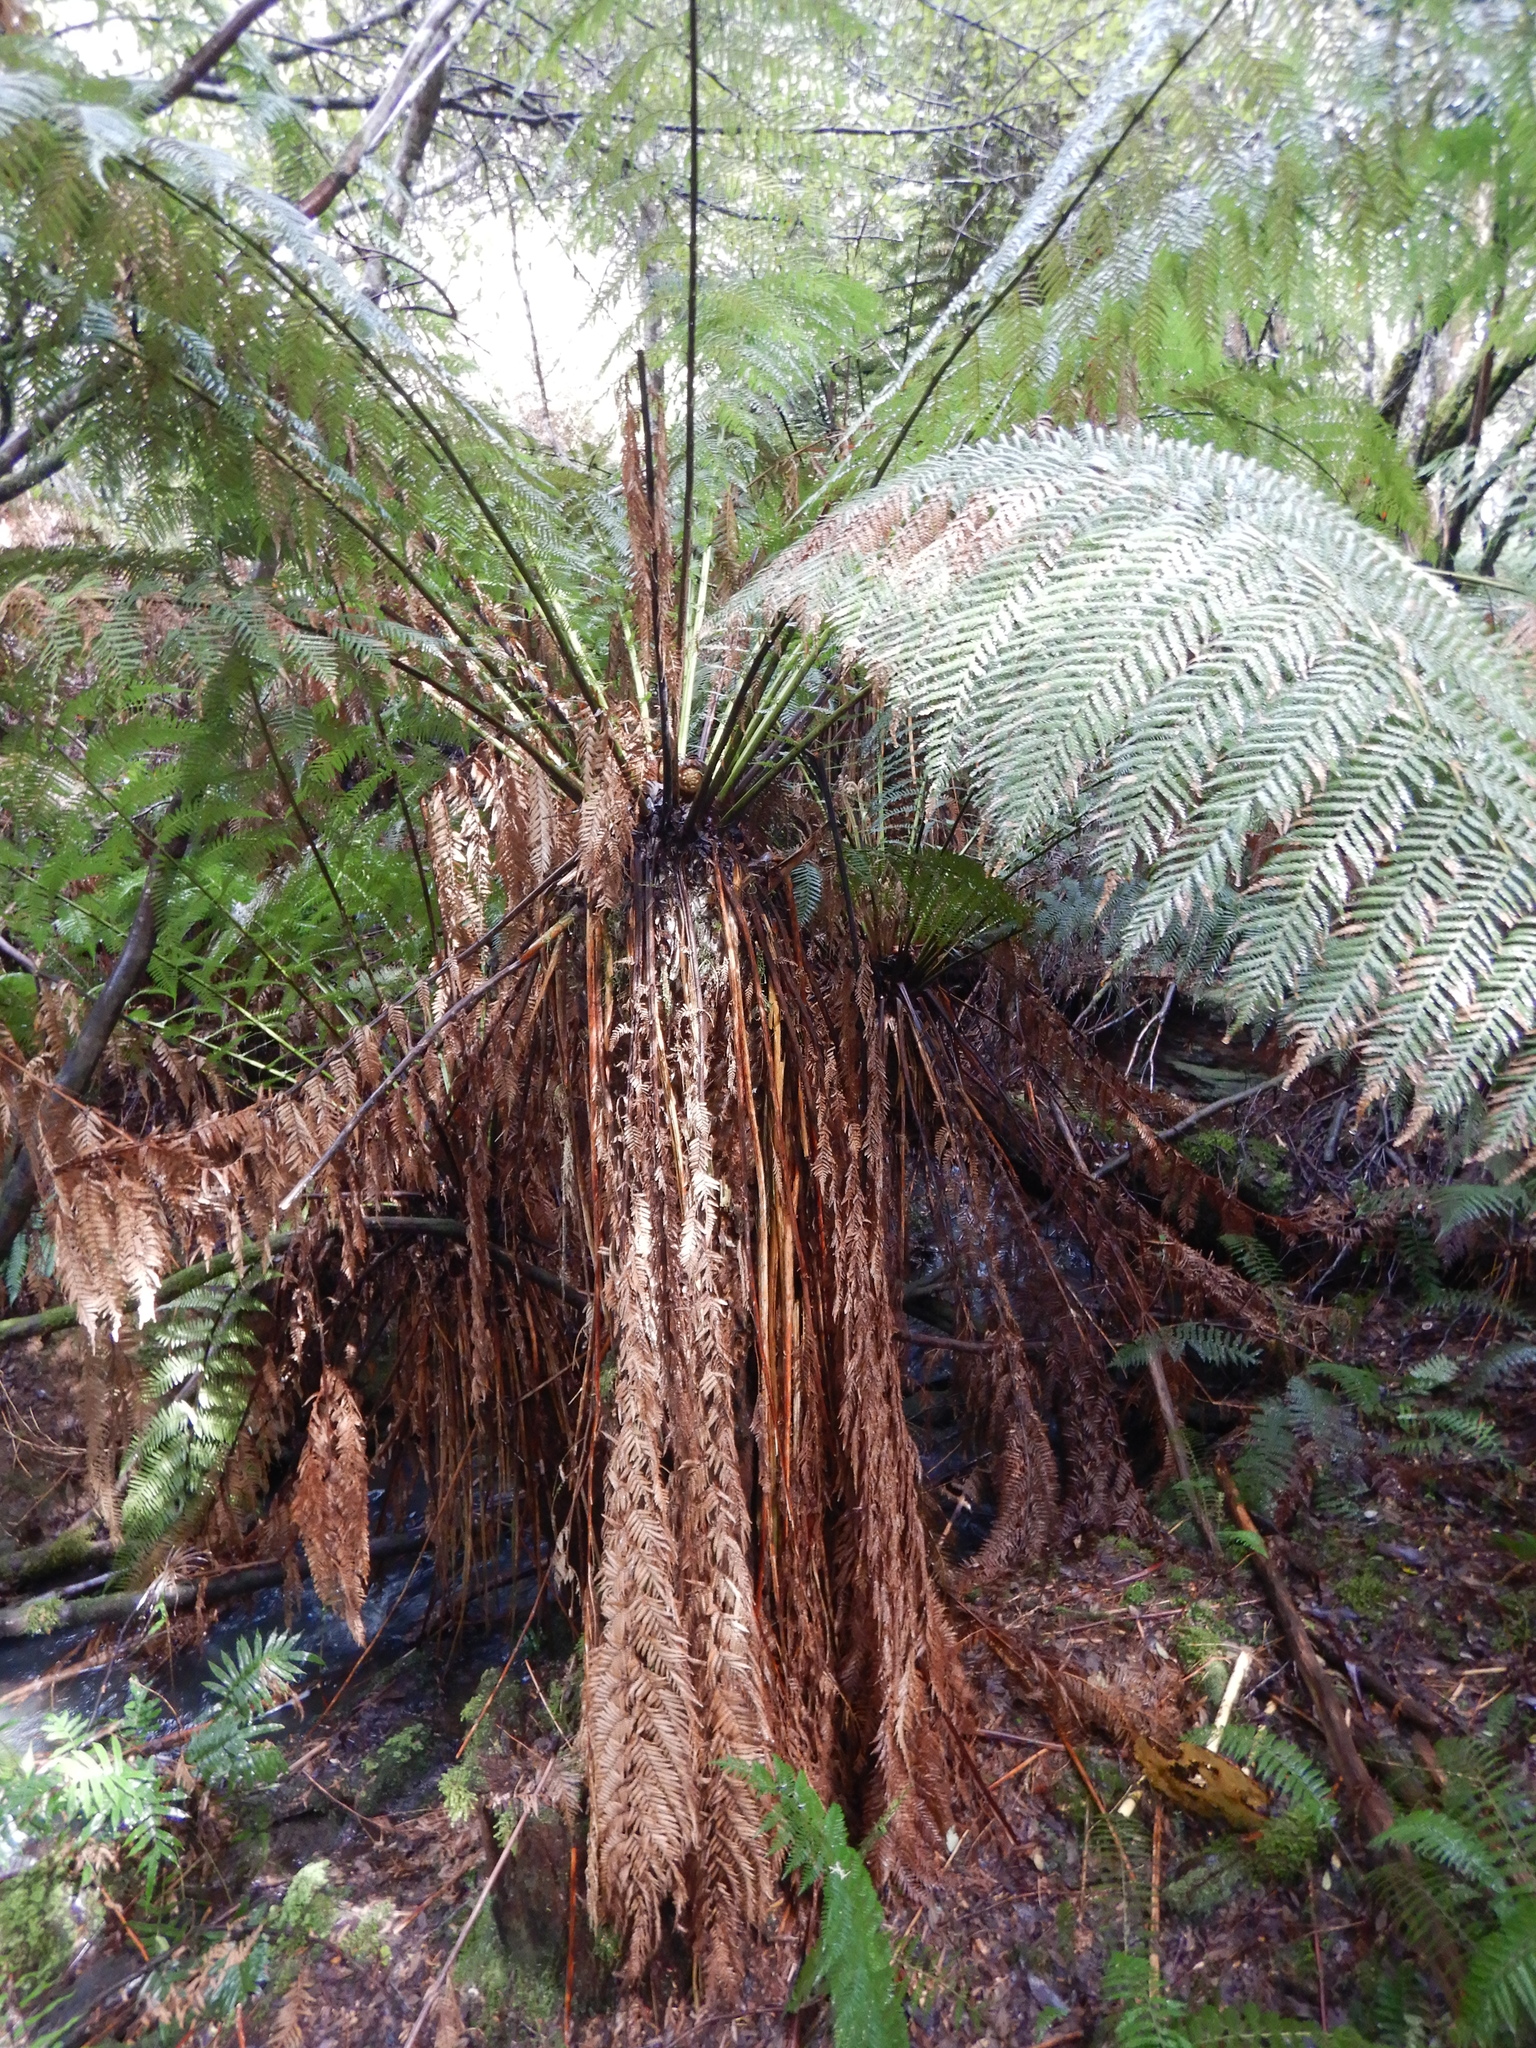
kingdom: Plantae
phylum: Tracheophyta
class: Polypodiopsida
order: Cyatheales
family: Dicksoniaceae
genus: Dicksonia
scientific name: Dicksonia antarctica
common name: Australian treefern
